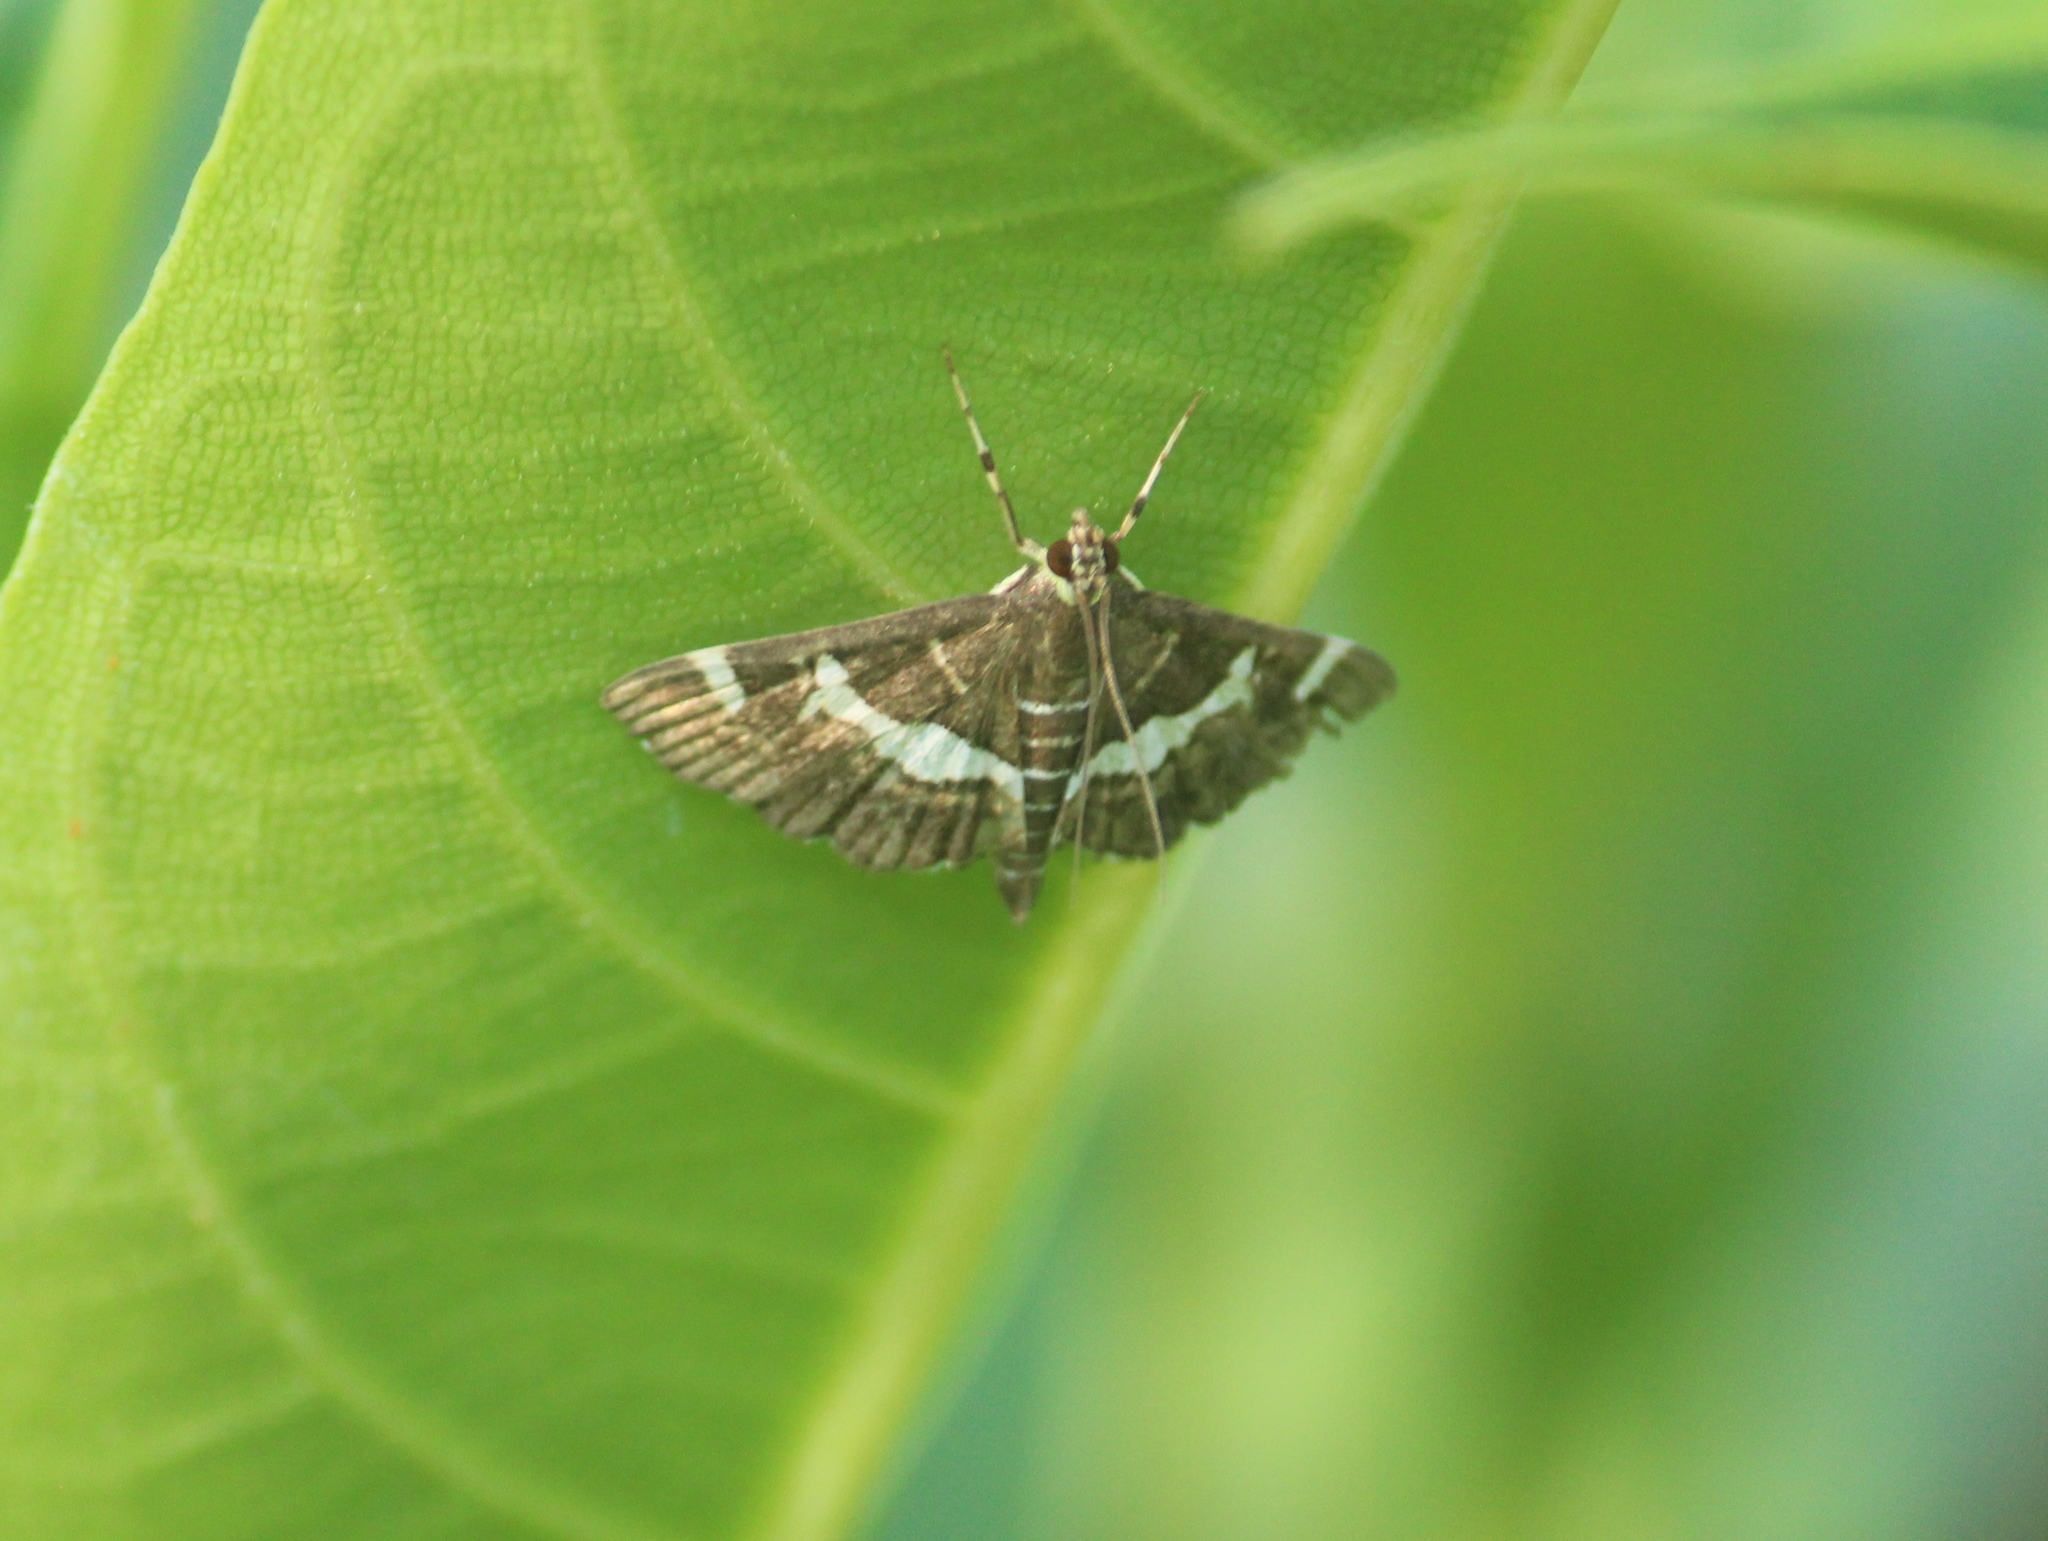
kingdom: Animalia
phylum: Arthropoda
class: Insecta
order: Lepidoptera
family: Crambidae
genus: Spoladea
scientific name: Spoladea recurvalis
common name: Beet webworm moth
